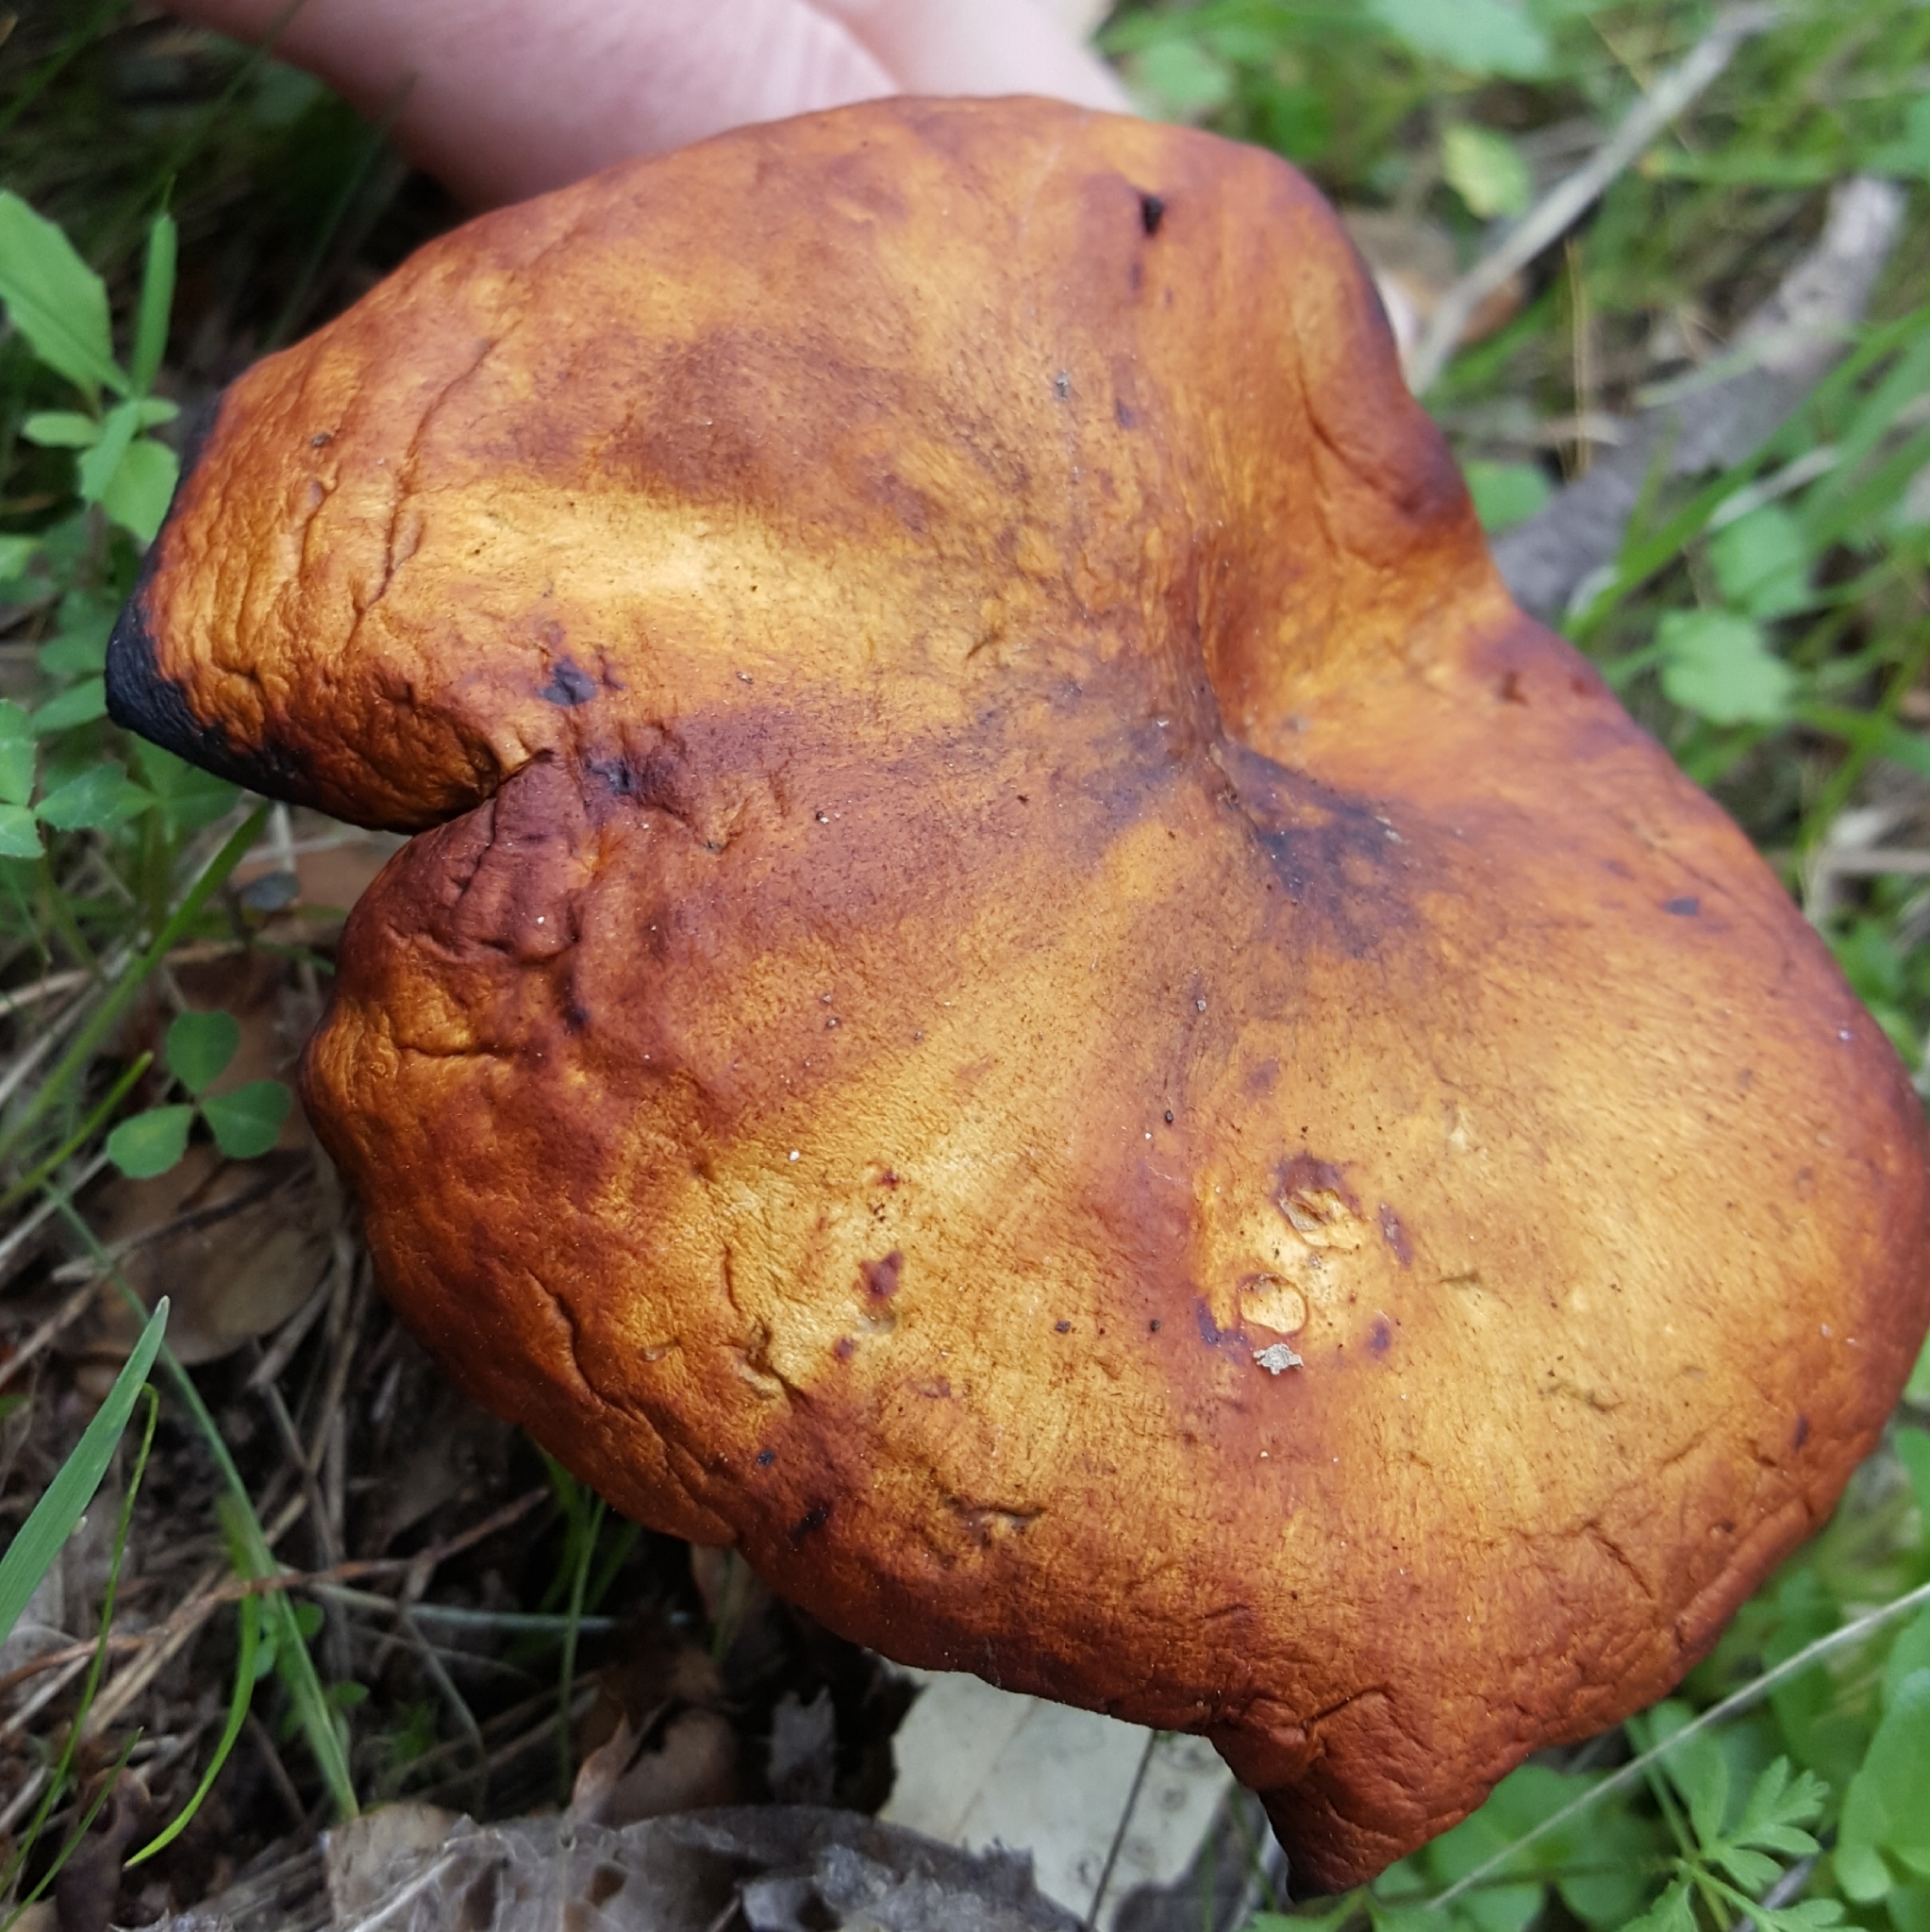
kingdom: Fungi
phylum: Basidiomycota
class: Agaricomycetes
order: Agaricales
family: Omphalotaceae
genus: Omphalotus
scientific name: Omphalotus olivascens
